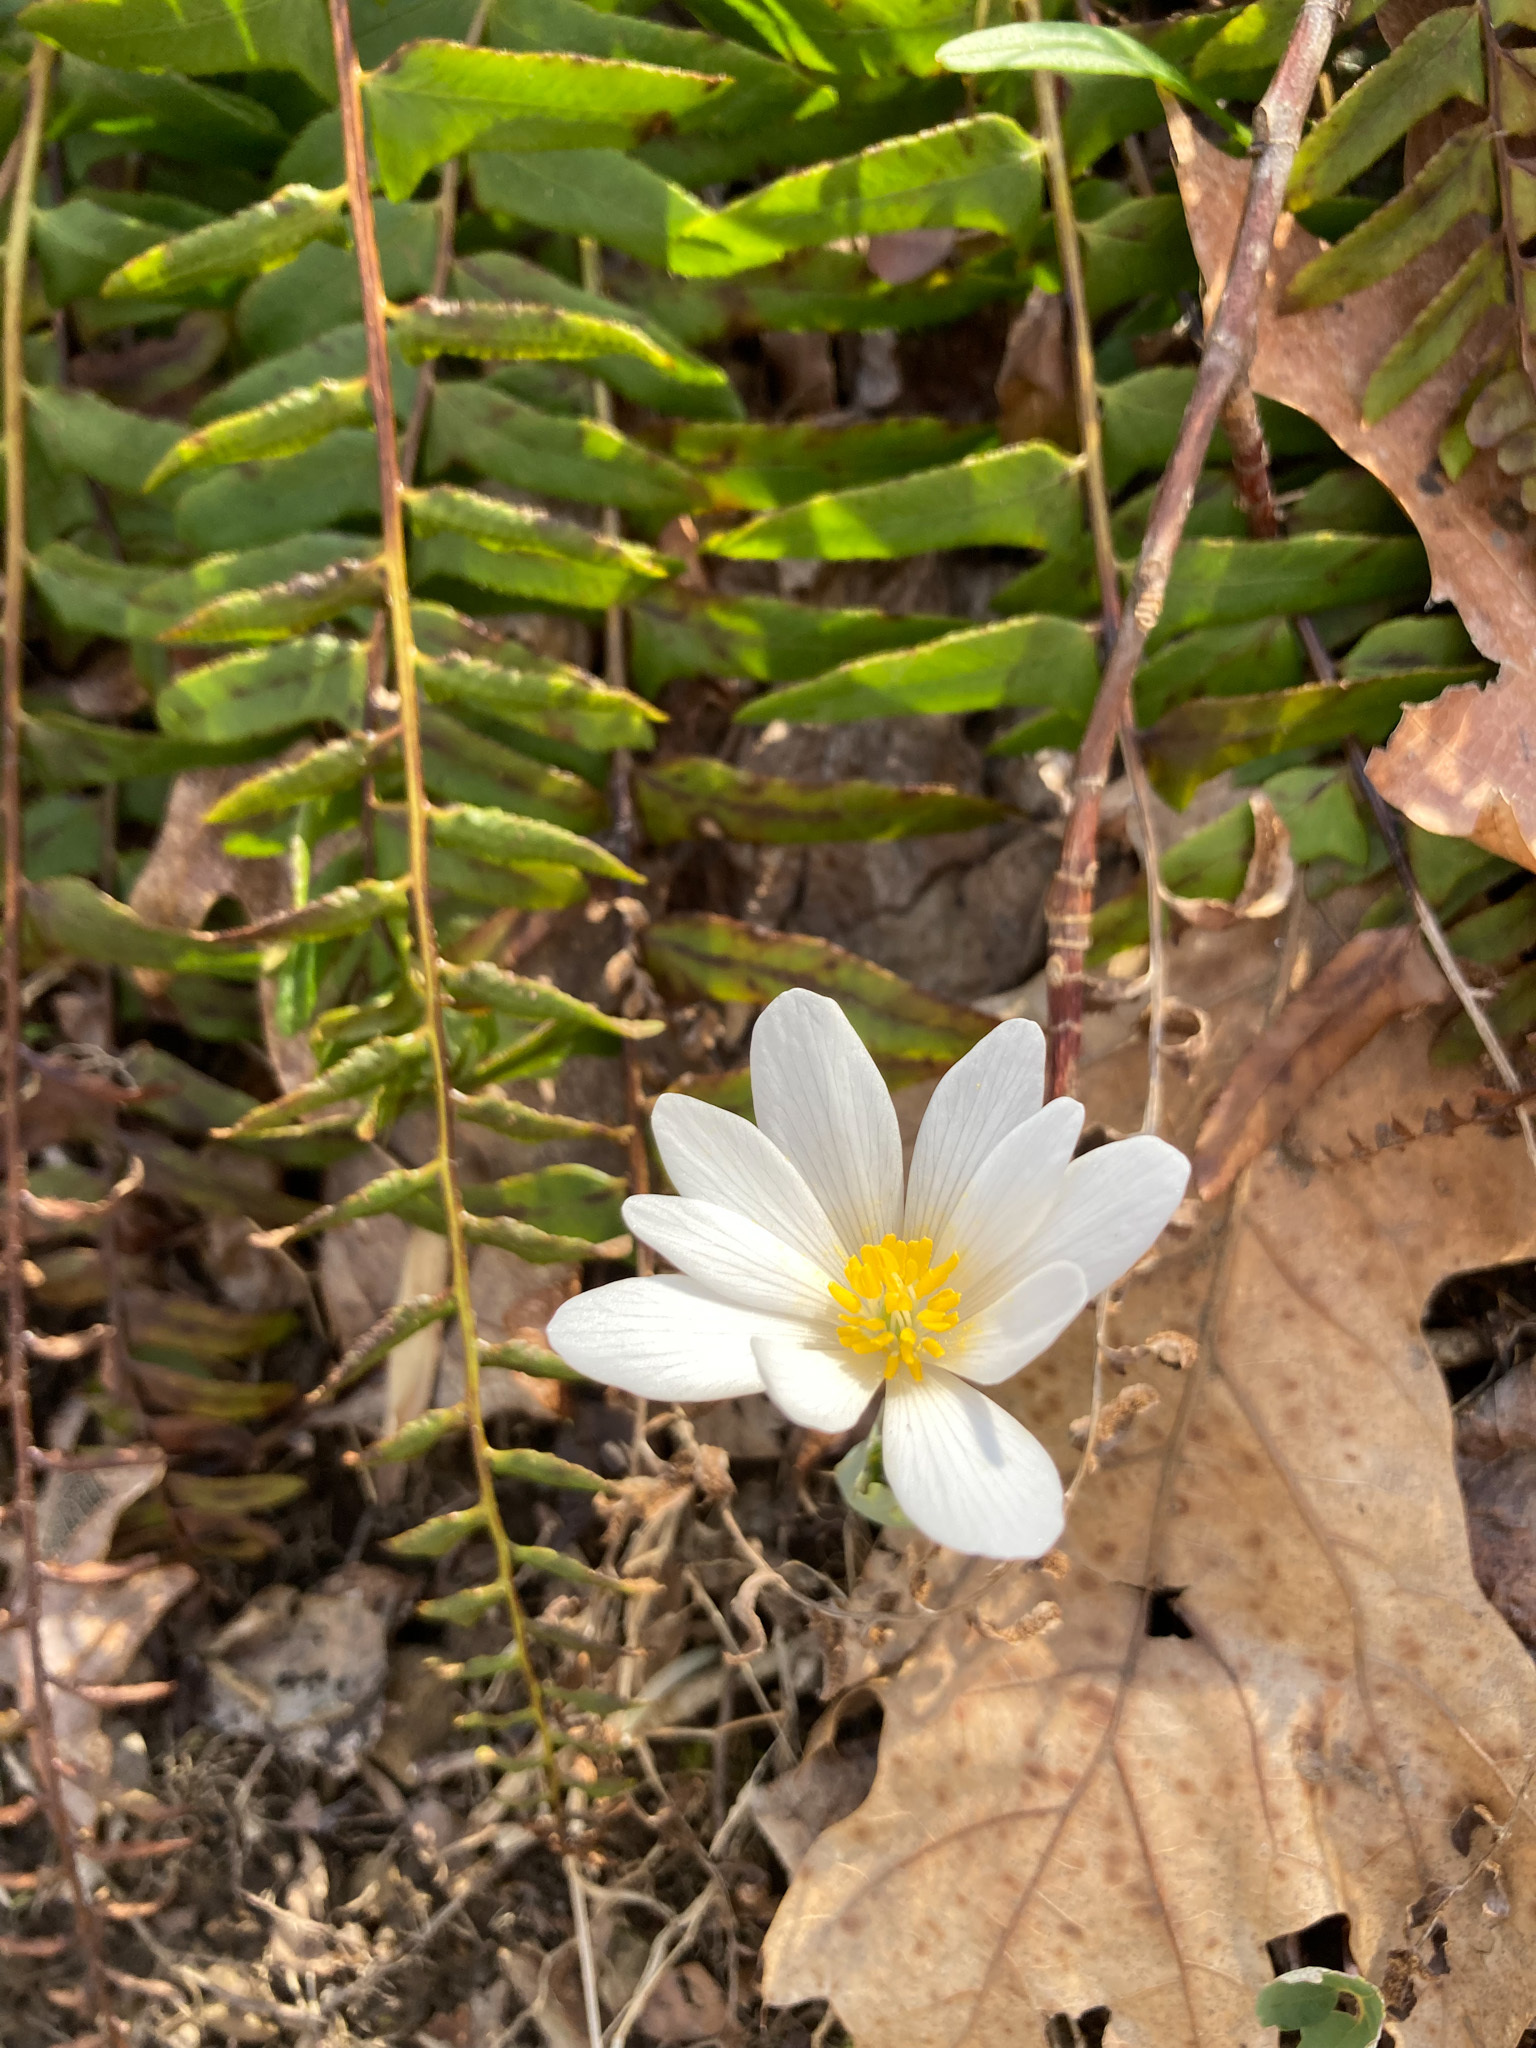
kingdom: Plantae
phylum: Tracheophyta
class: Magnoliopsida
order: Ranunculales
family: Papaveraceae
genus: Sanguinaria
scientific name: Sanguinaria canadensis
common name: Bloodroot
